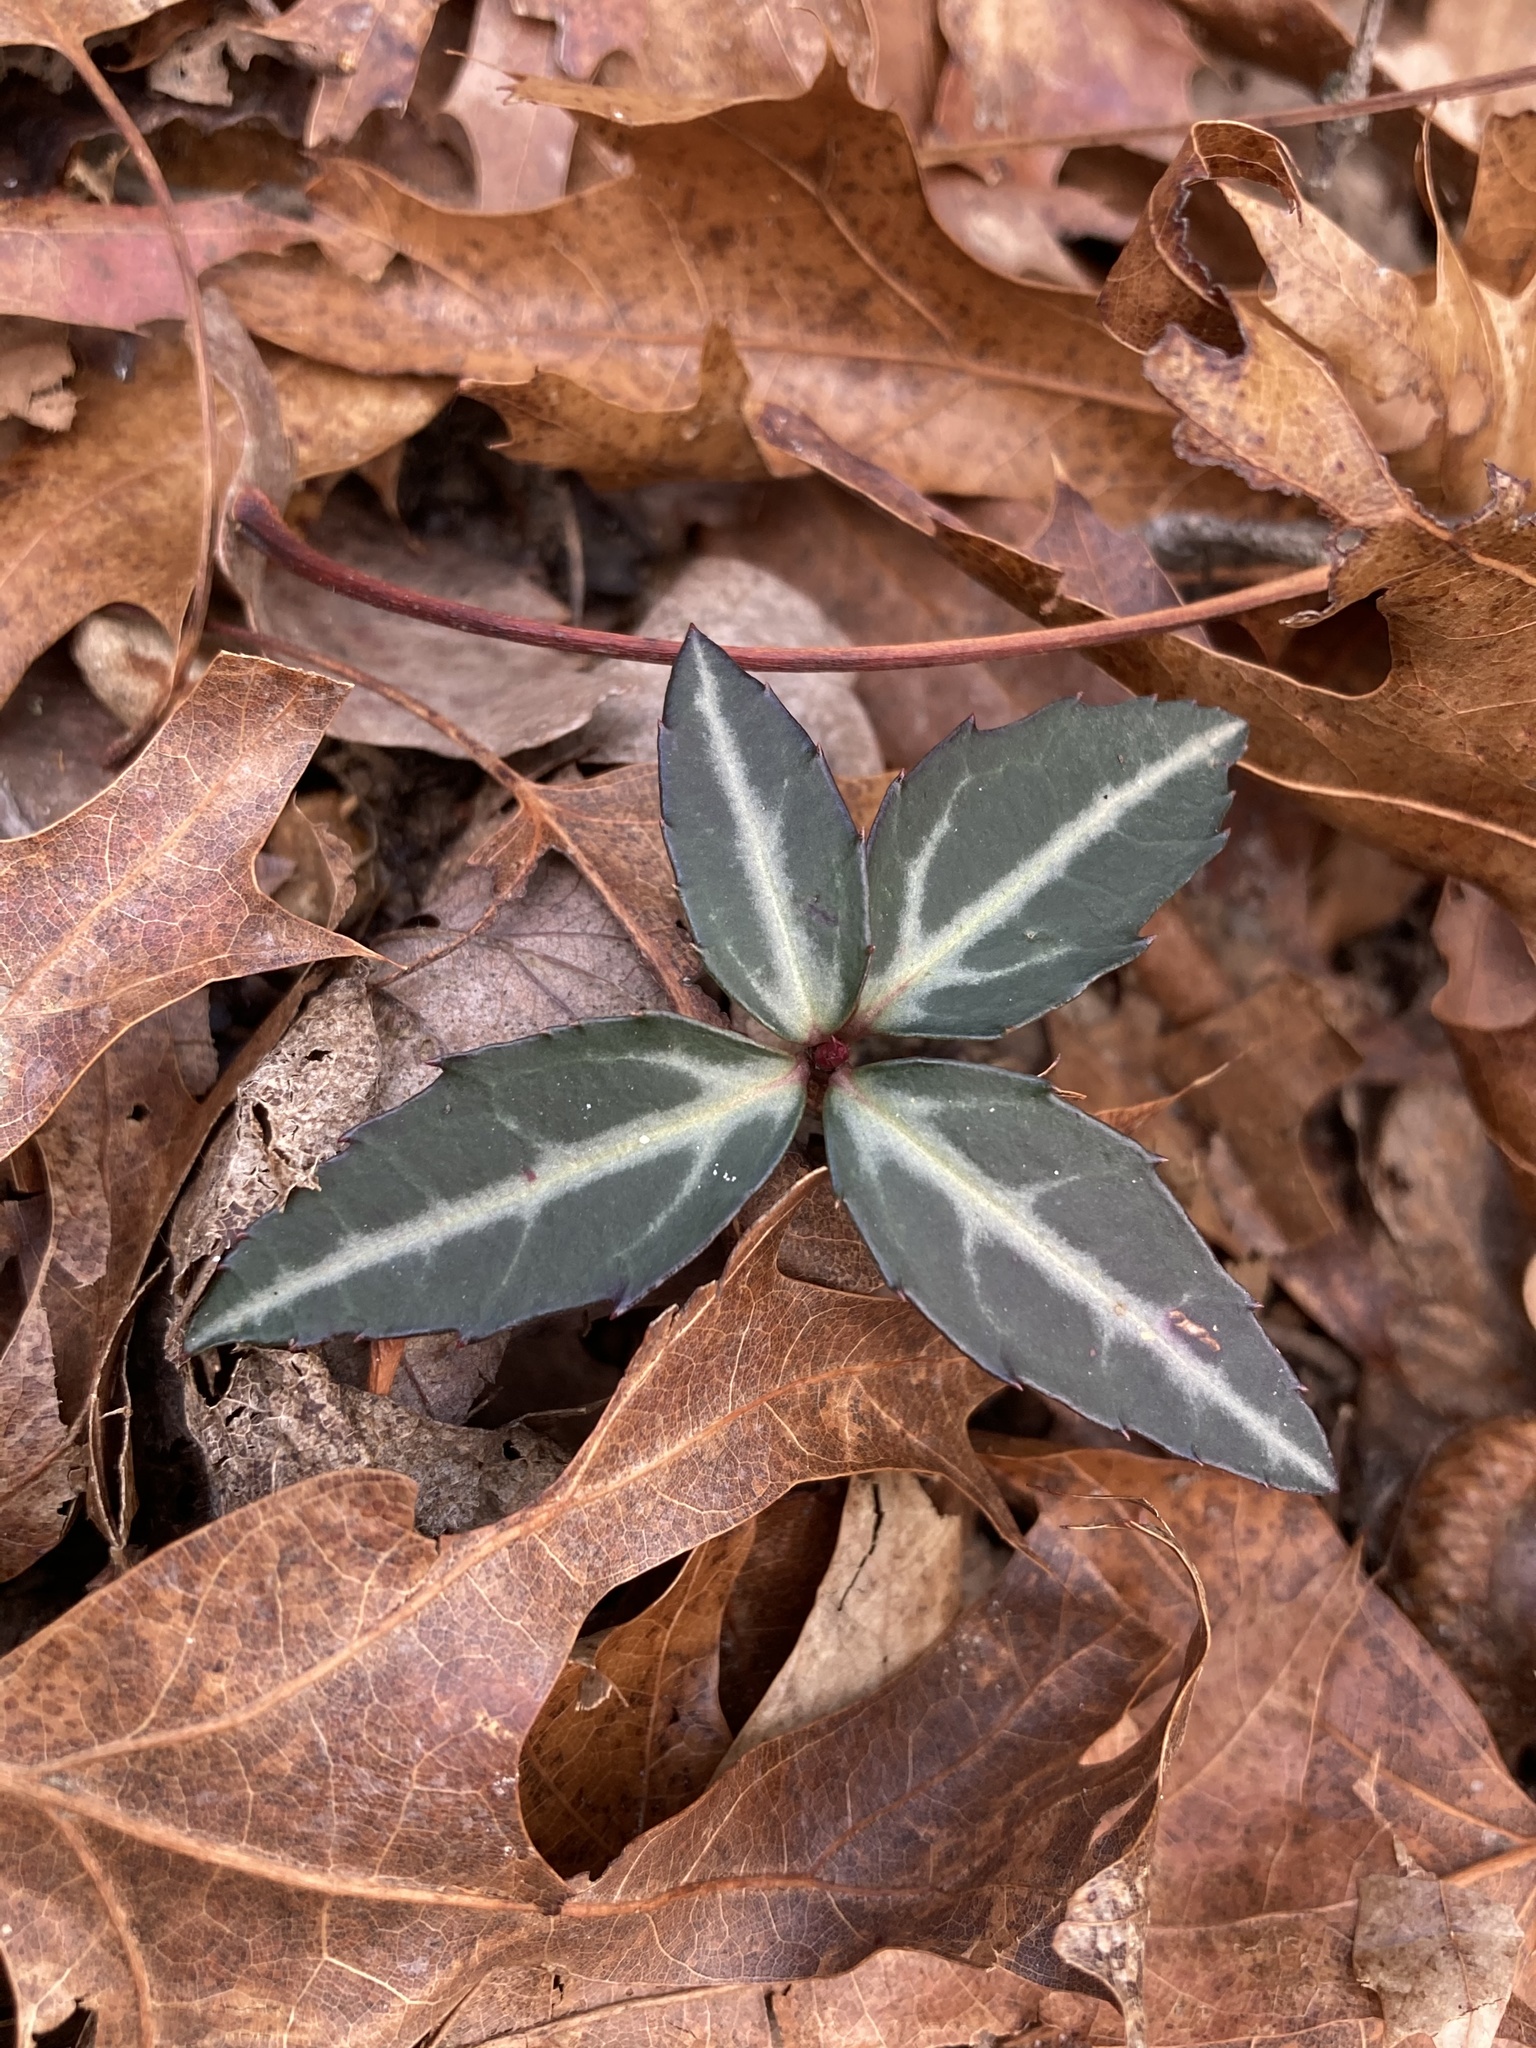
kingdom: Plantae
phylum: Tracheophyta
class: Magnoliopsida
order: Ericales
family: Ericaceae
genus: Chimaphila
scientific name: Chimaphila maculata
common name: Spotted pipsissewa
